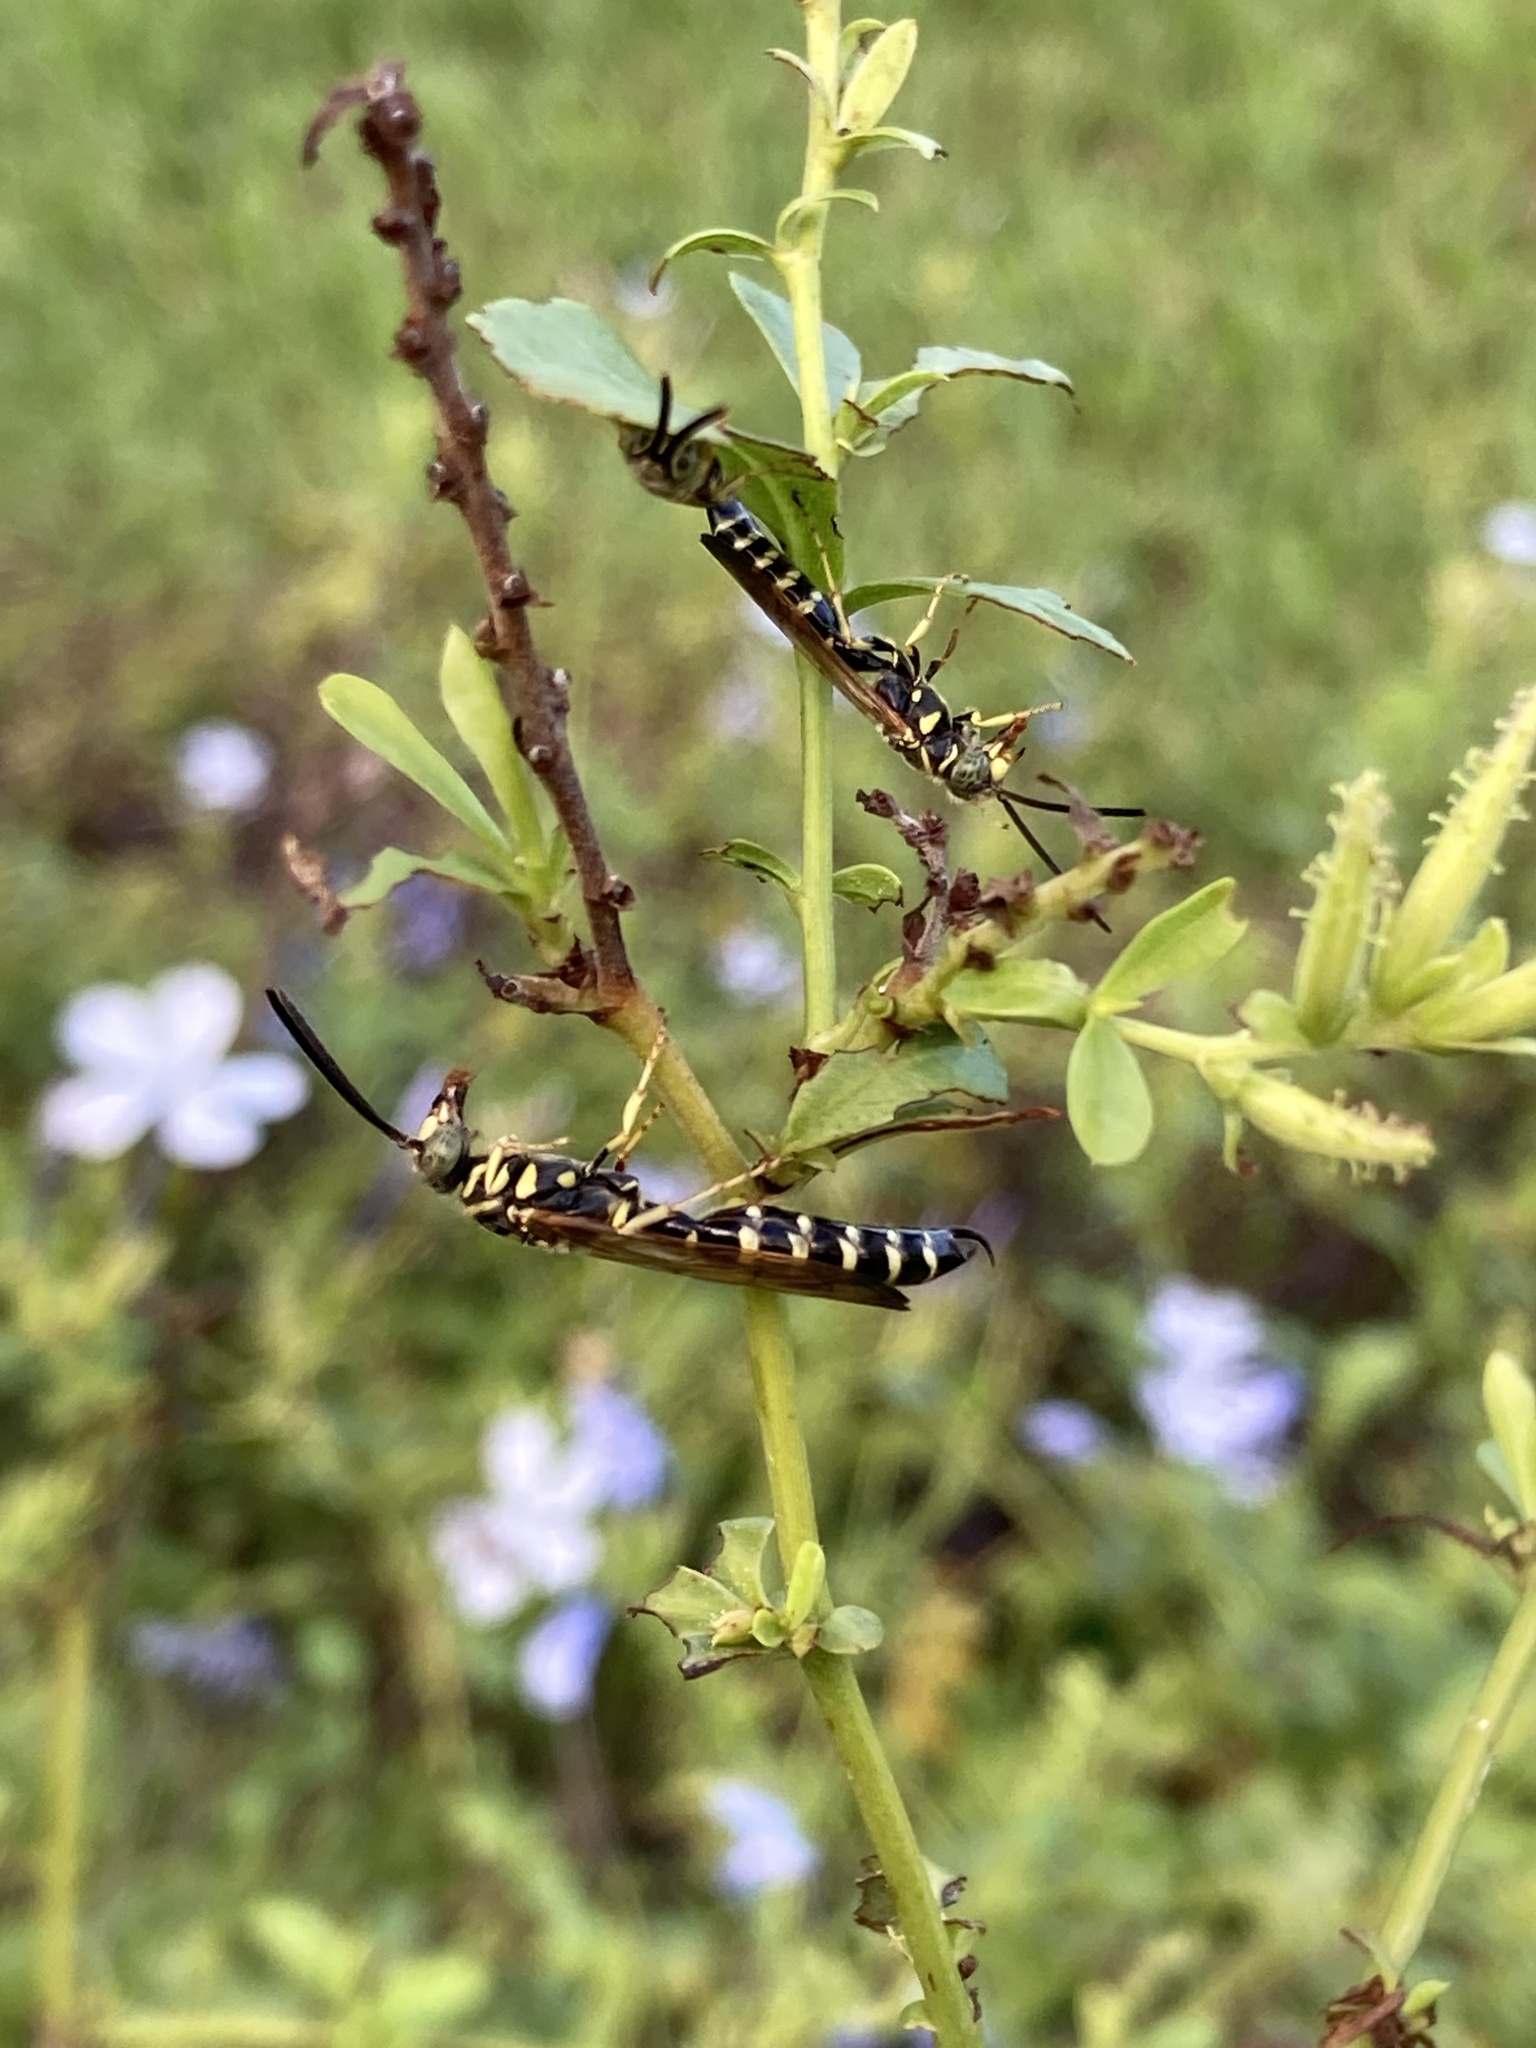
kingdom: Animalia
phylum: Arthropoda
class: Insecta
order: Hymenoptera
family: Tiphiidae
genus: Myzinum
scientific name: Myzinum
